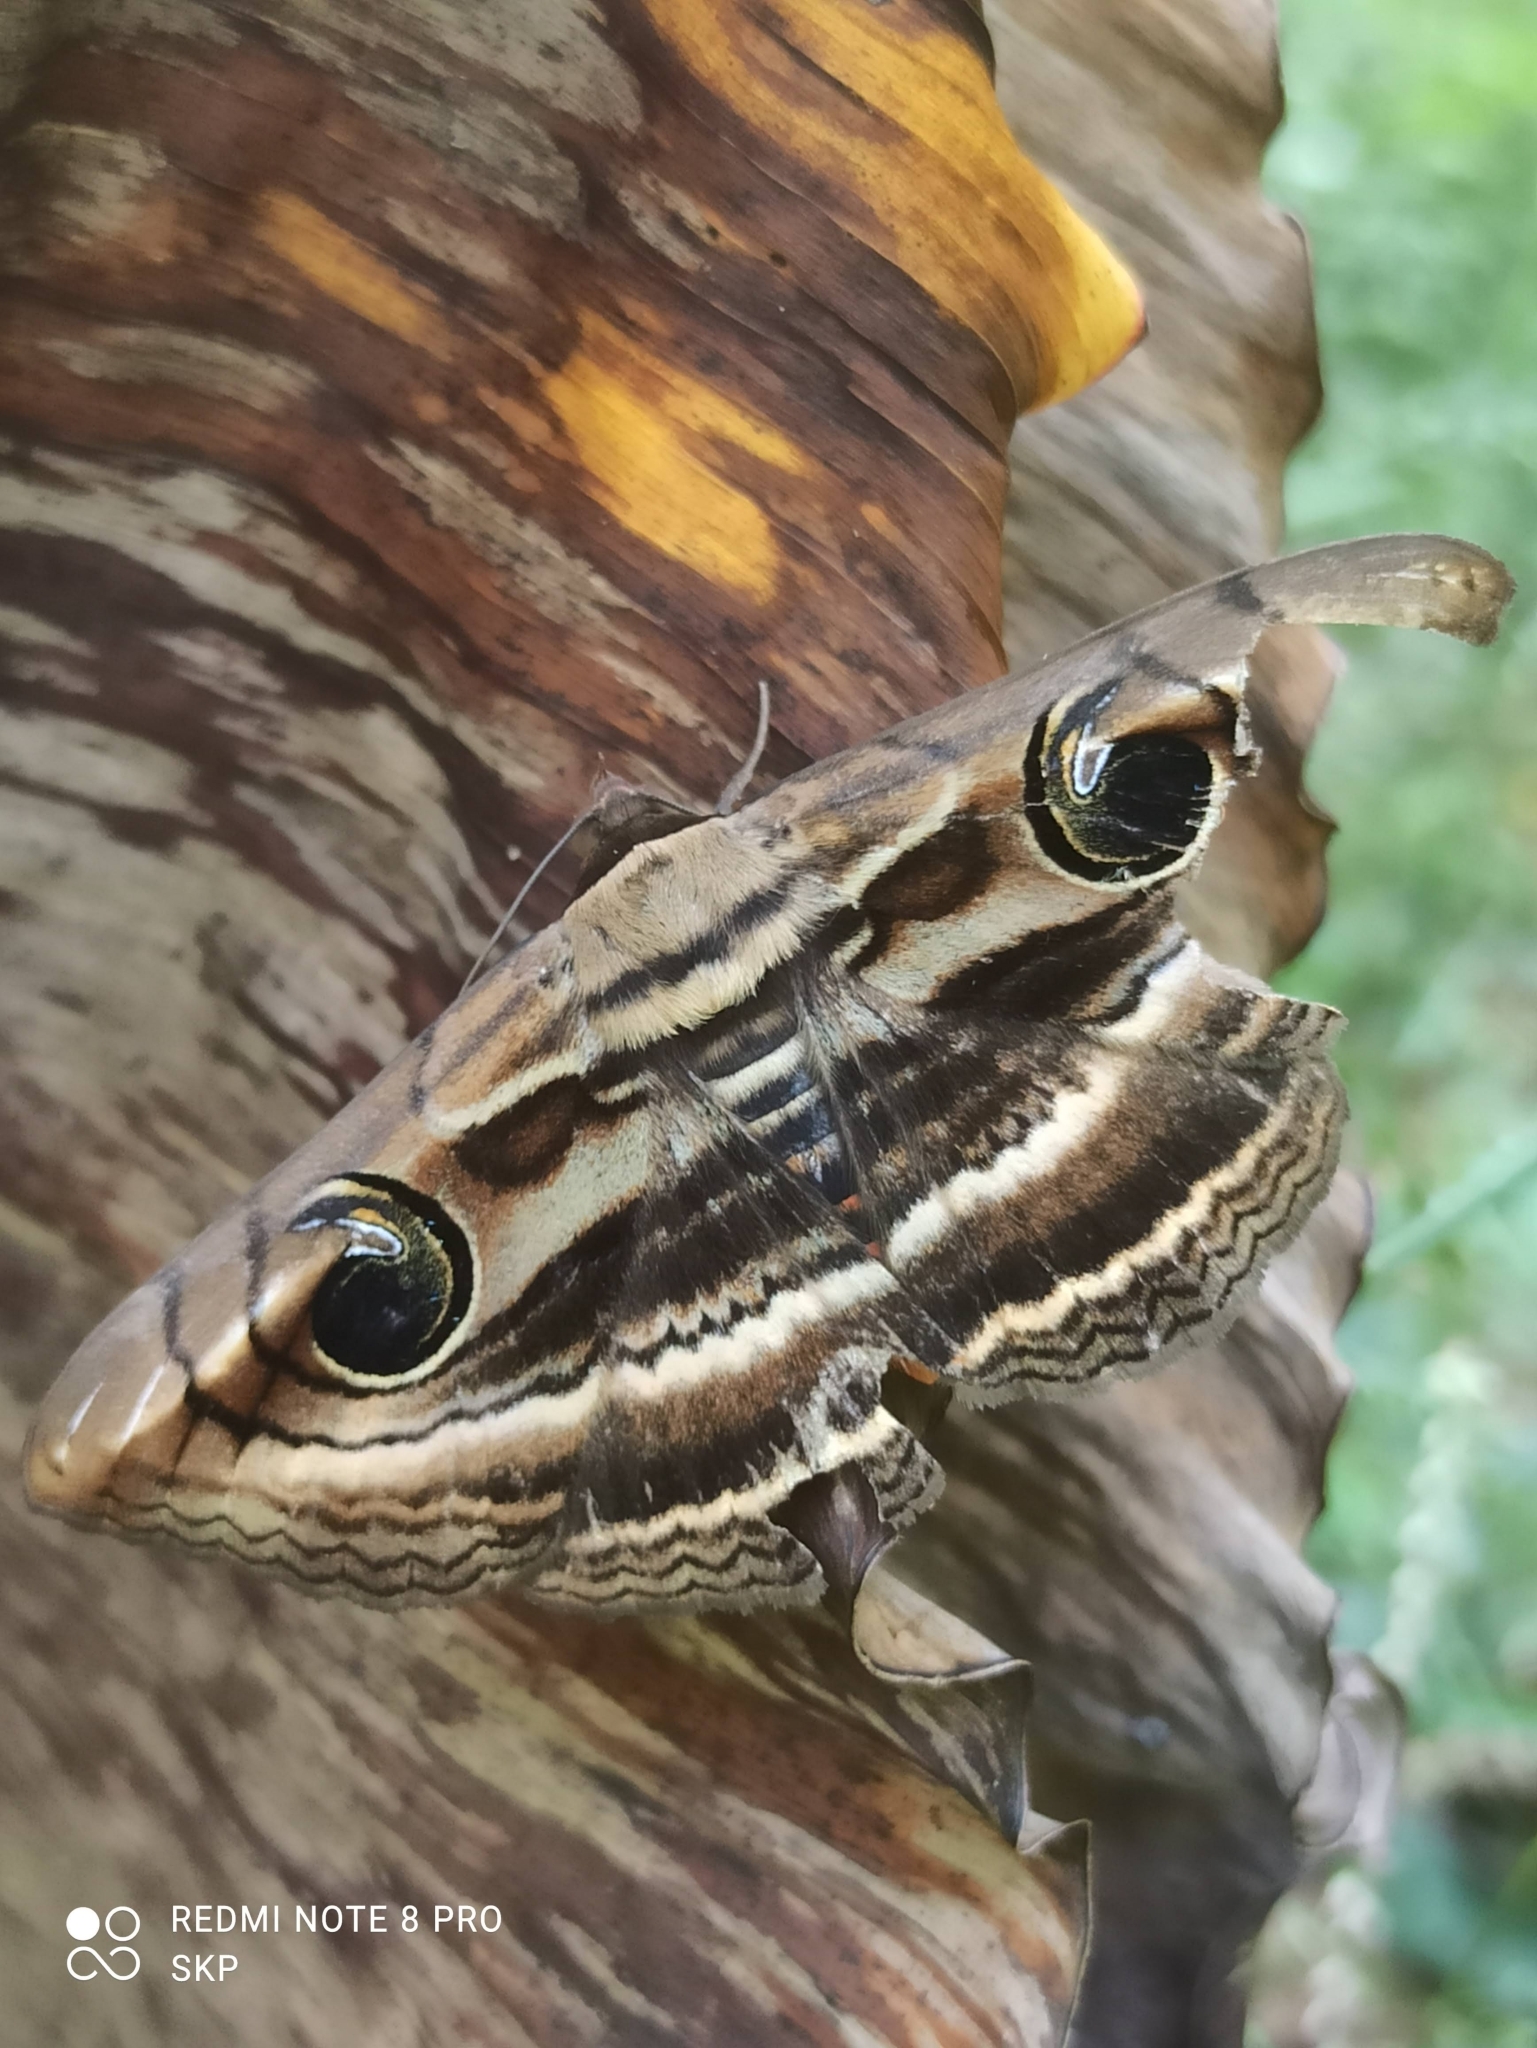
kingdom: Animalia
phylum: Arthropoda
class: Insecta
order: Lepidoptera
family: Erebidae
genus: Spirama
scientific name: Spirama retorta
